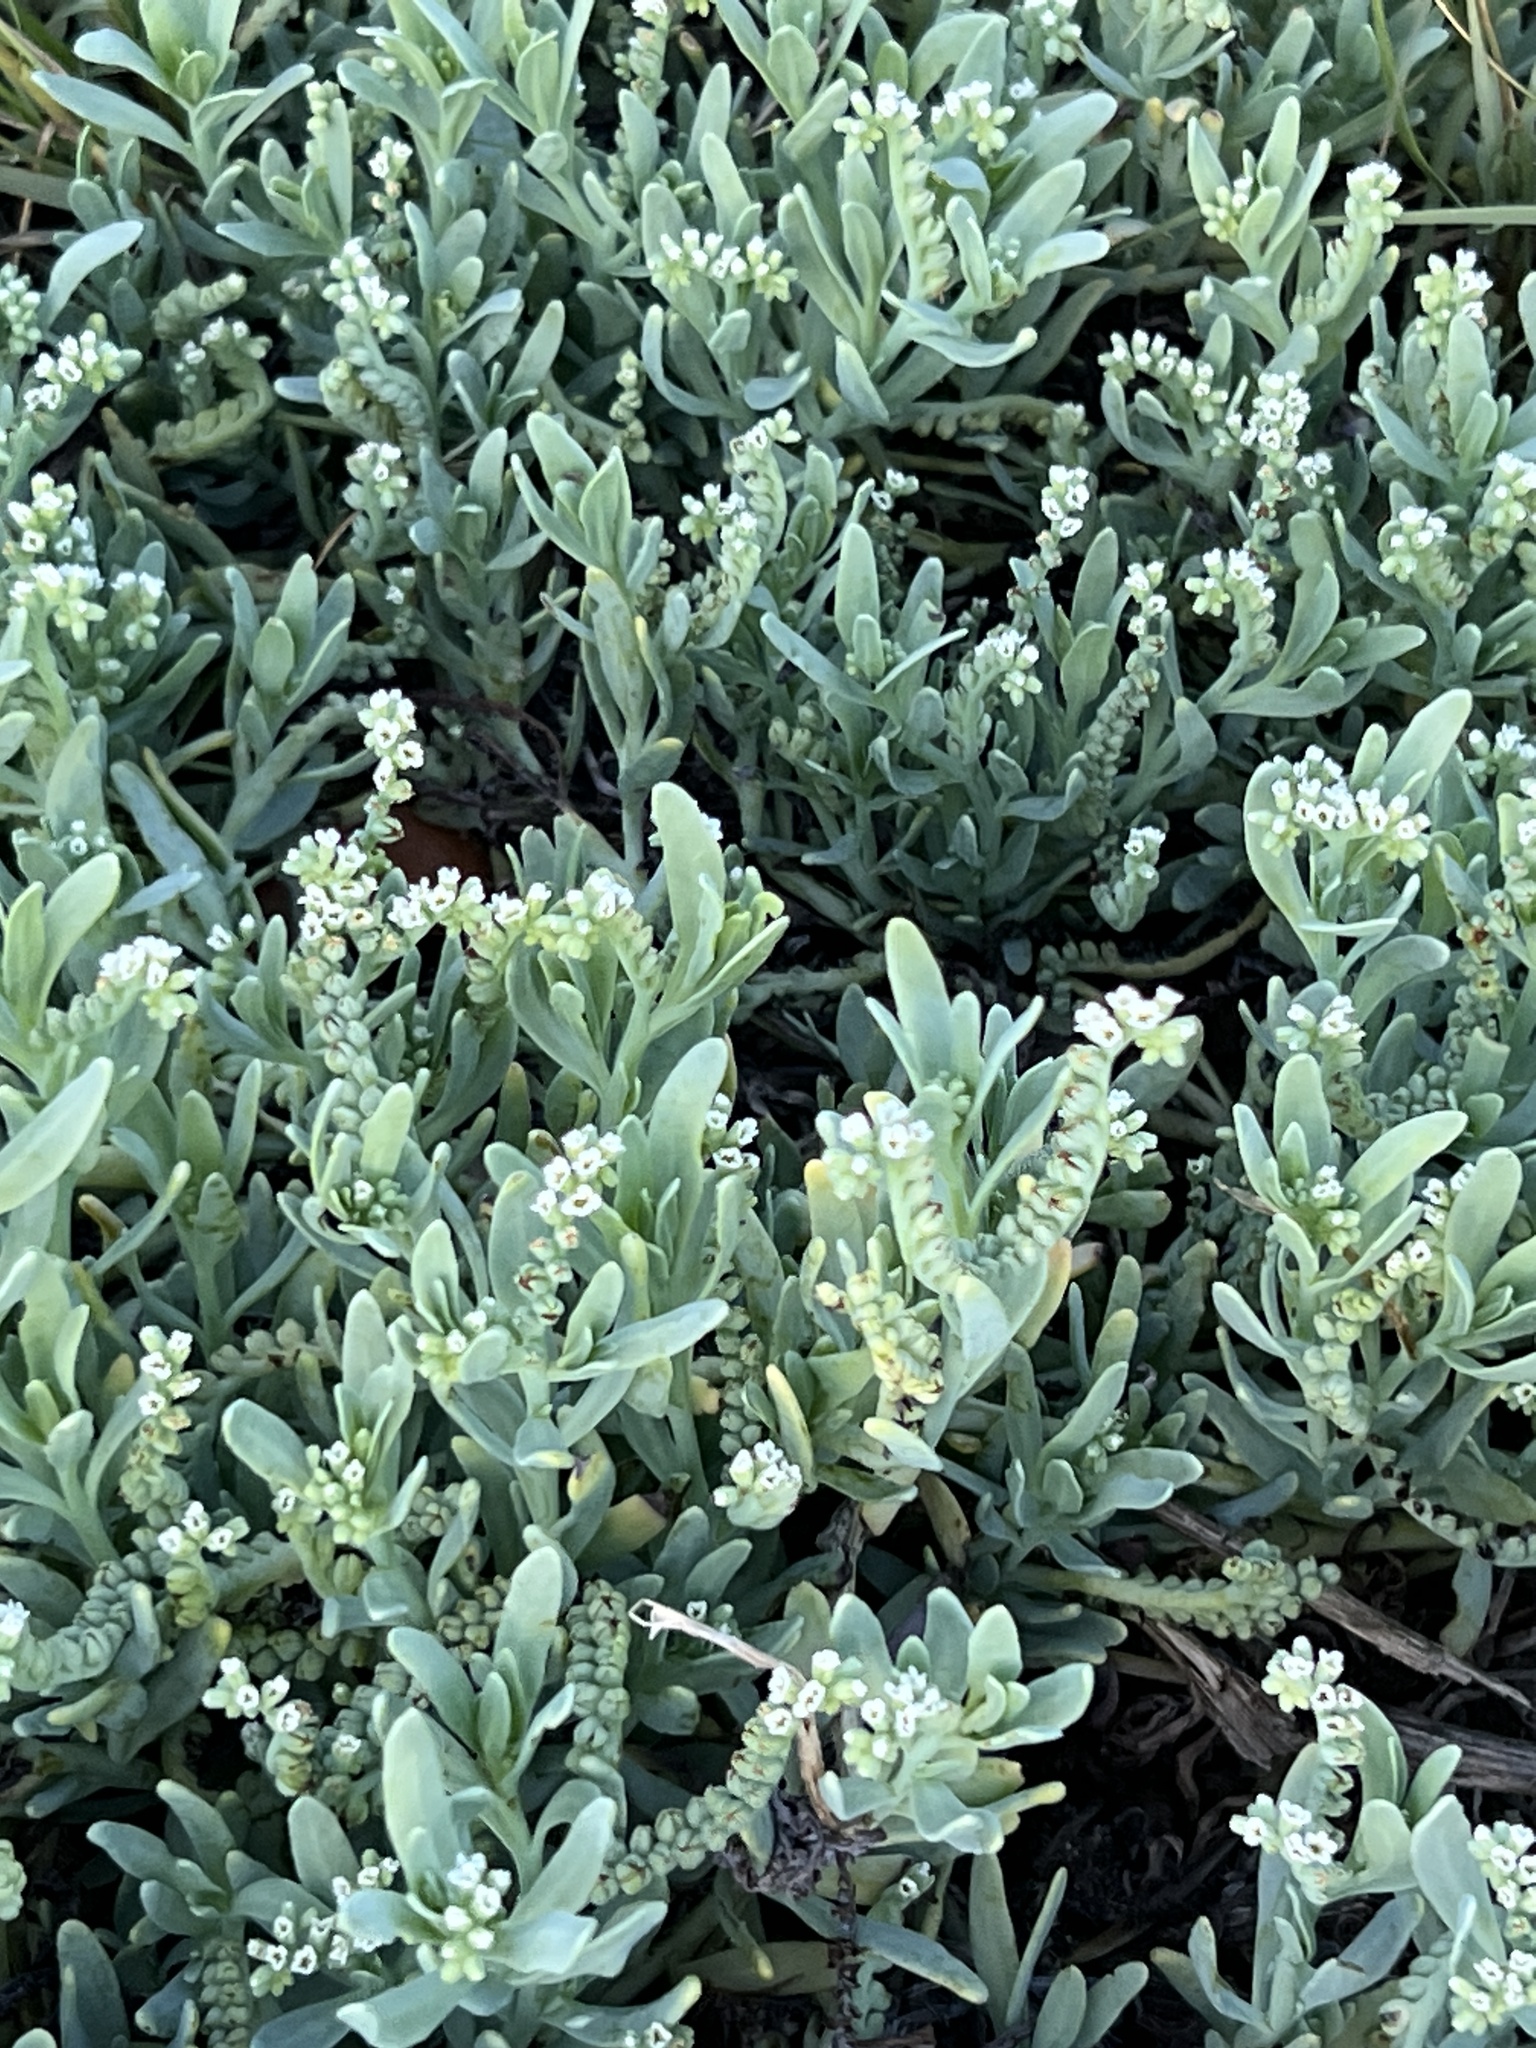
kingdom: Plantae
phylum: Tracheophyta
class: Magnoliopsida
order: Boraginales
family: Heliotropiaceae
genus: Heliotropium
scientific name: Heliotropium curassavicum
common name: Seaside heliotrope
